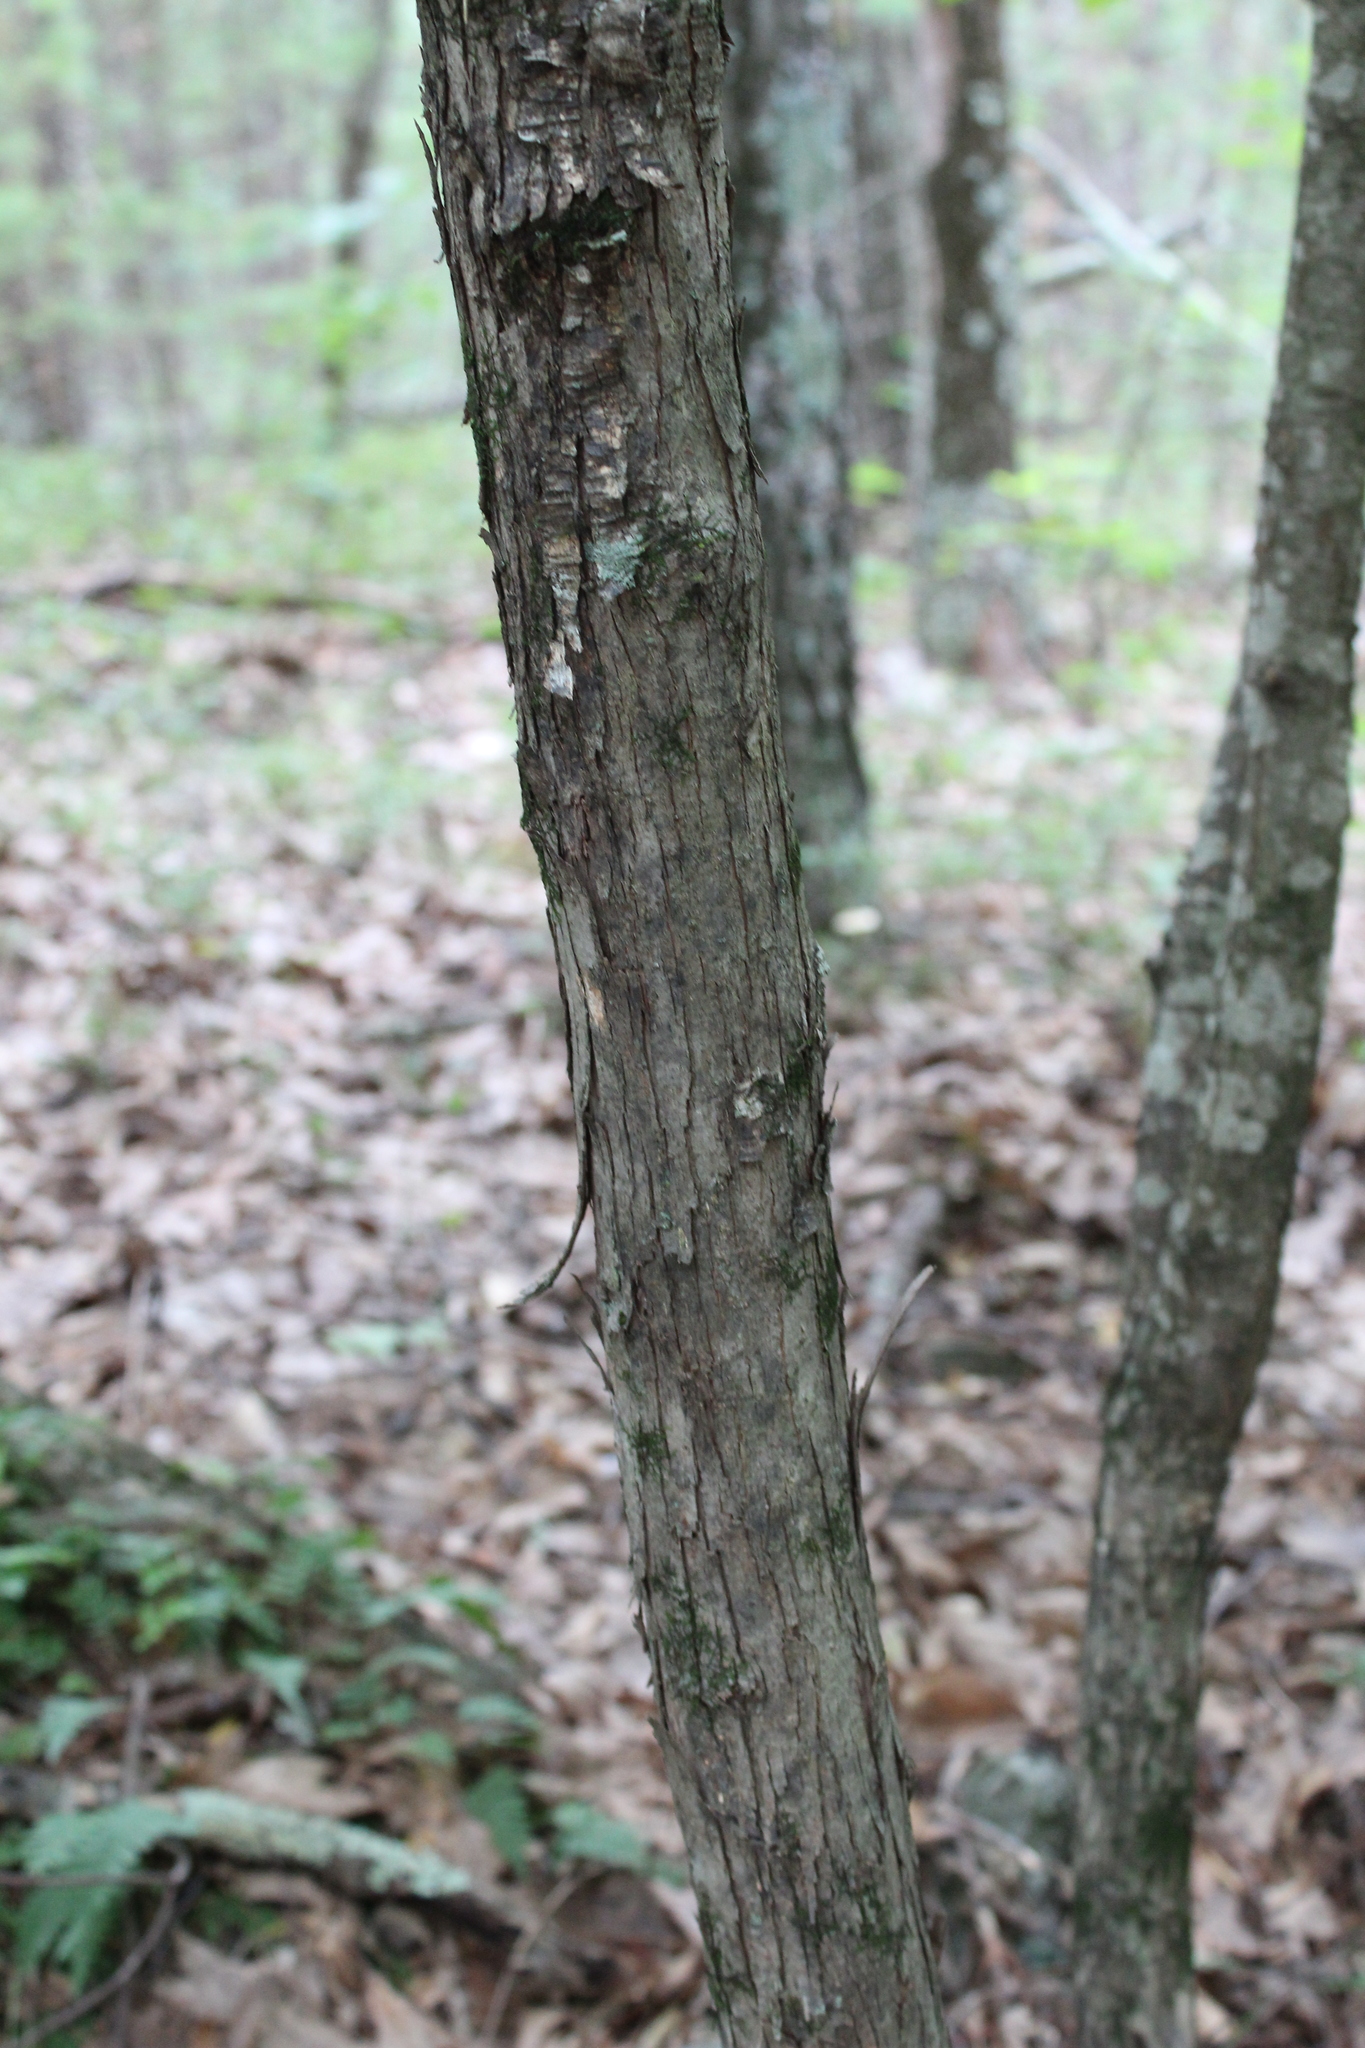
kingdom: Plantae
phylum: Tracheophyta
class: Magnoliopsida
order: Fagales
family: Betulaceae
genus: Ostrya
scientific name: Ostrya virginiana
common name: Ironwood
